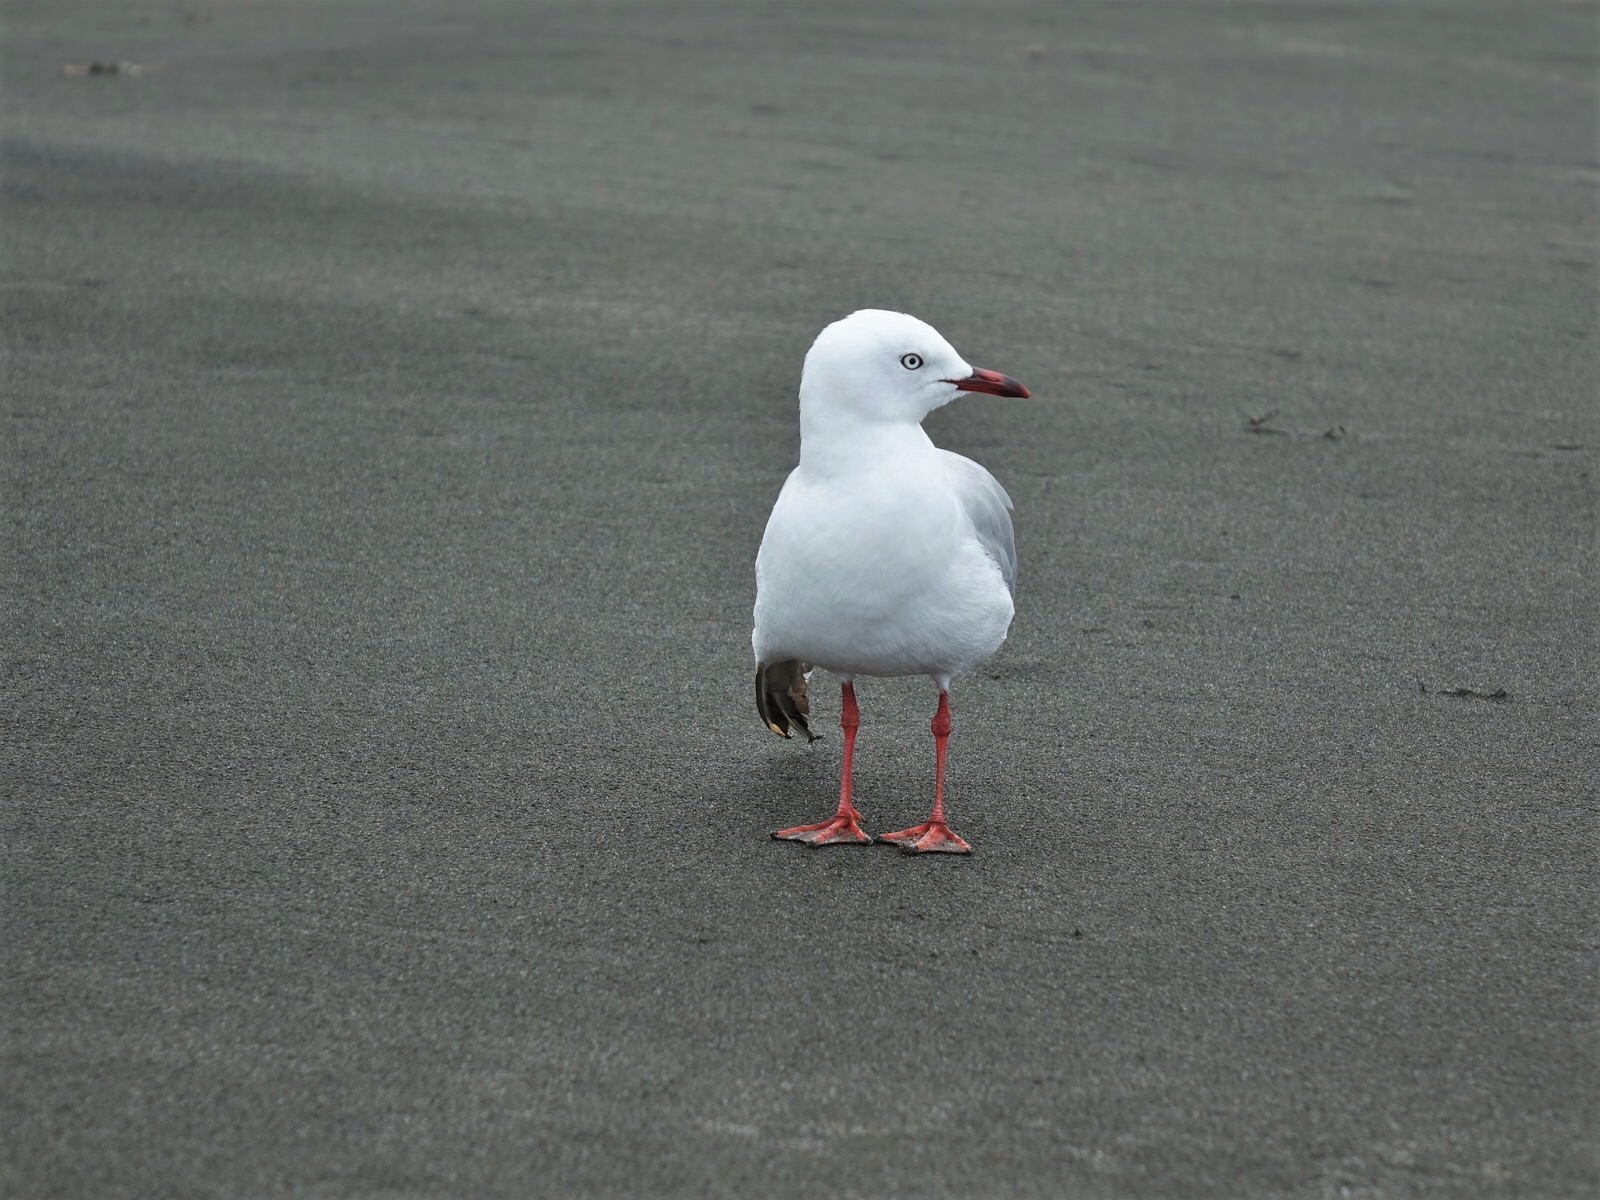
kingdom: Animalia
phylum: Chordata
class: Aves
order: Charadriiformes
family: Laridae
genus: Chroicocephalus
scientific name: Chroicocephalus novaehollandiae
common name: Silver gull
